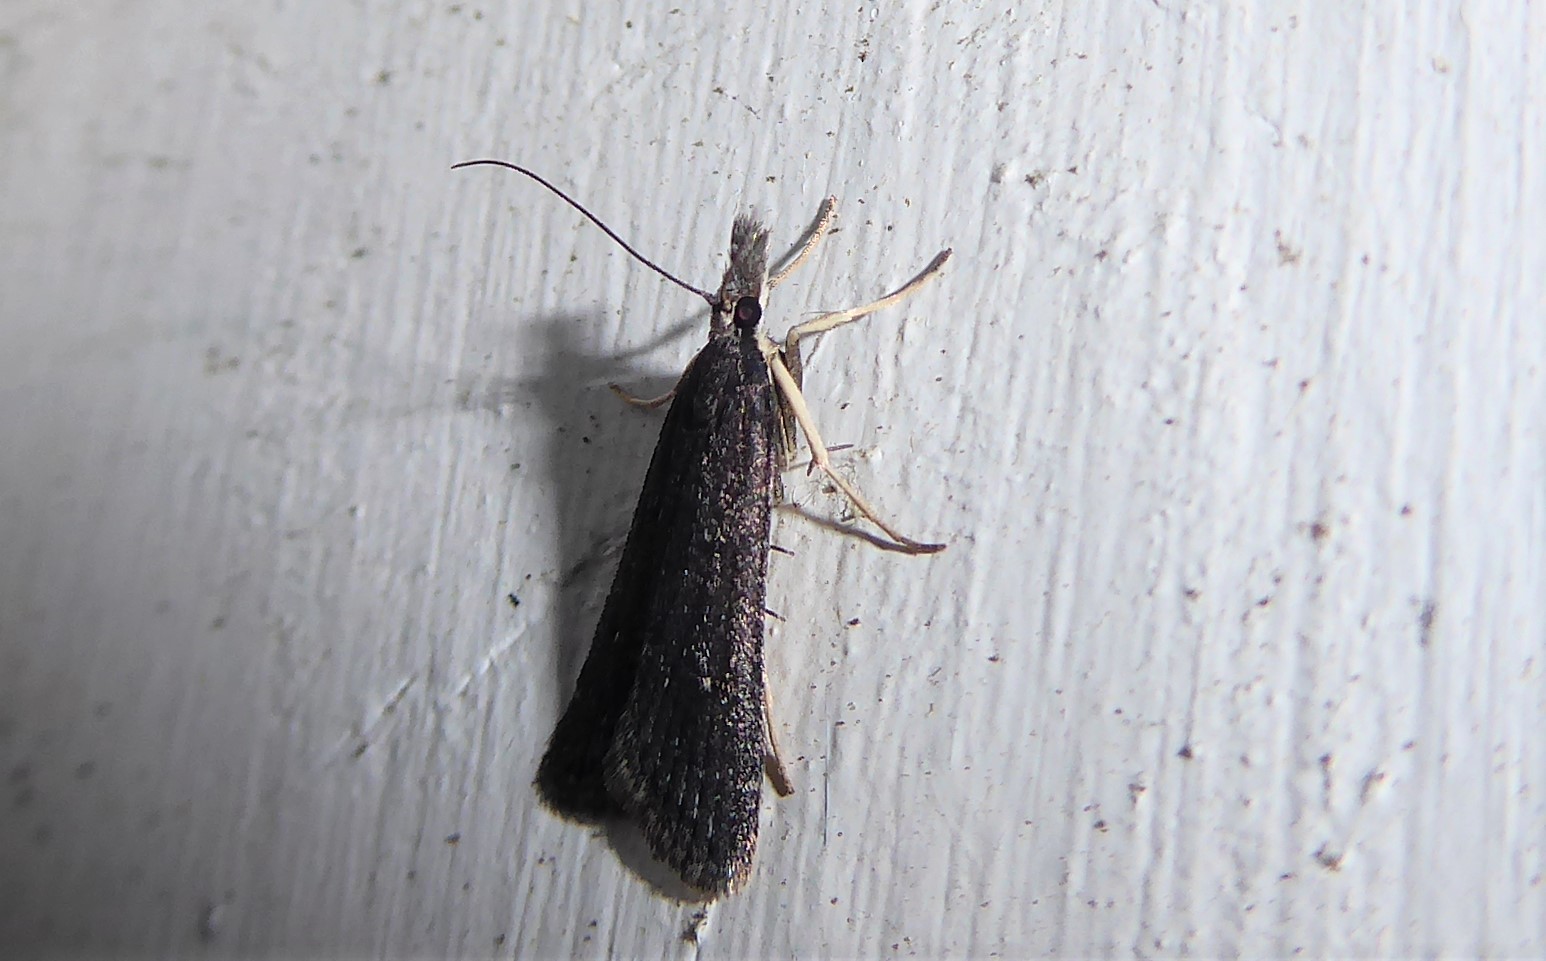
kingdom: Animalia
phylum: Arthropoda
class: Insecta
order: Lepidoptera
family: Crambidae
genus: Eudonia
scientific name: Eudonia oculata
